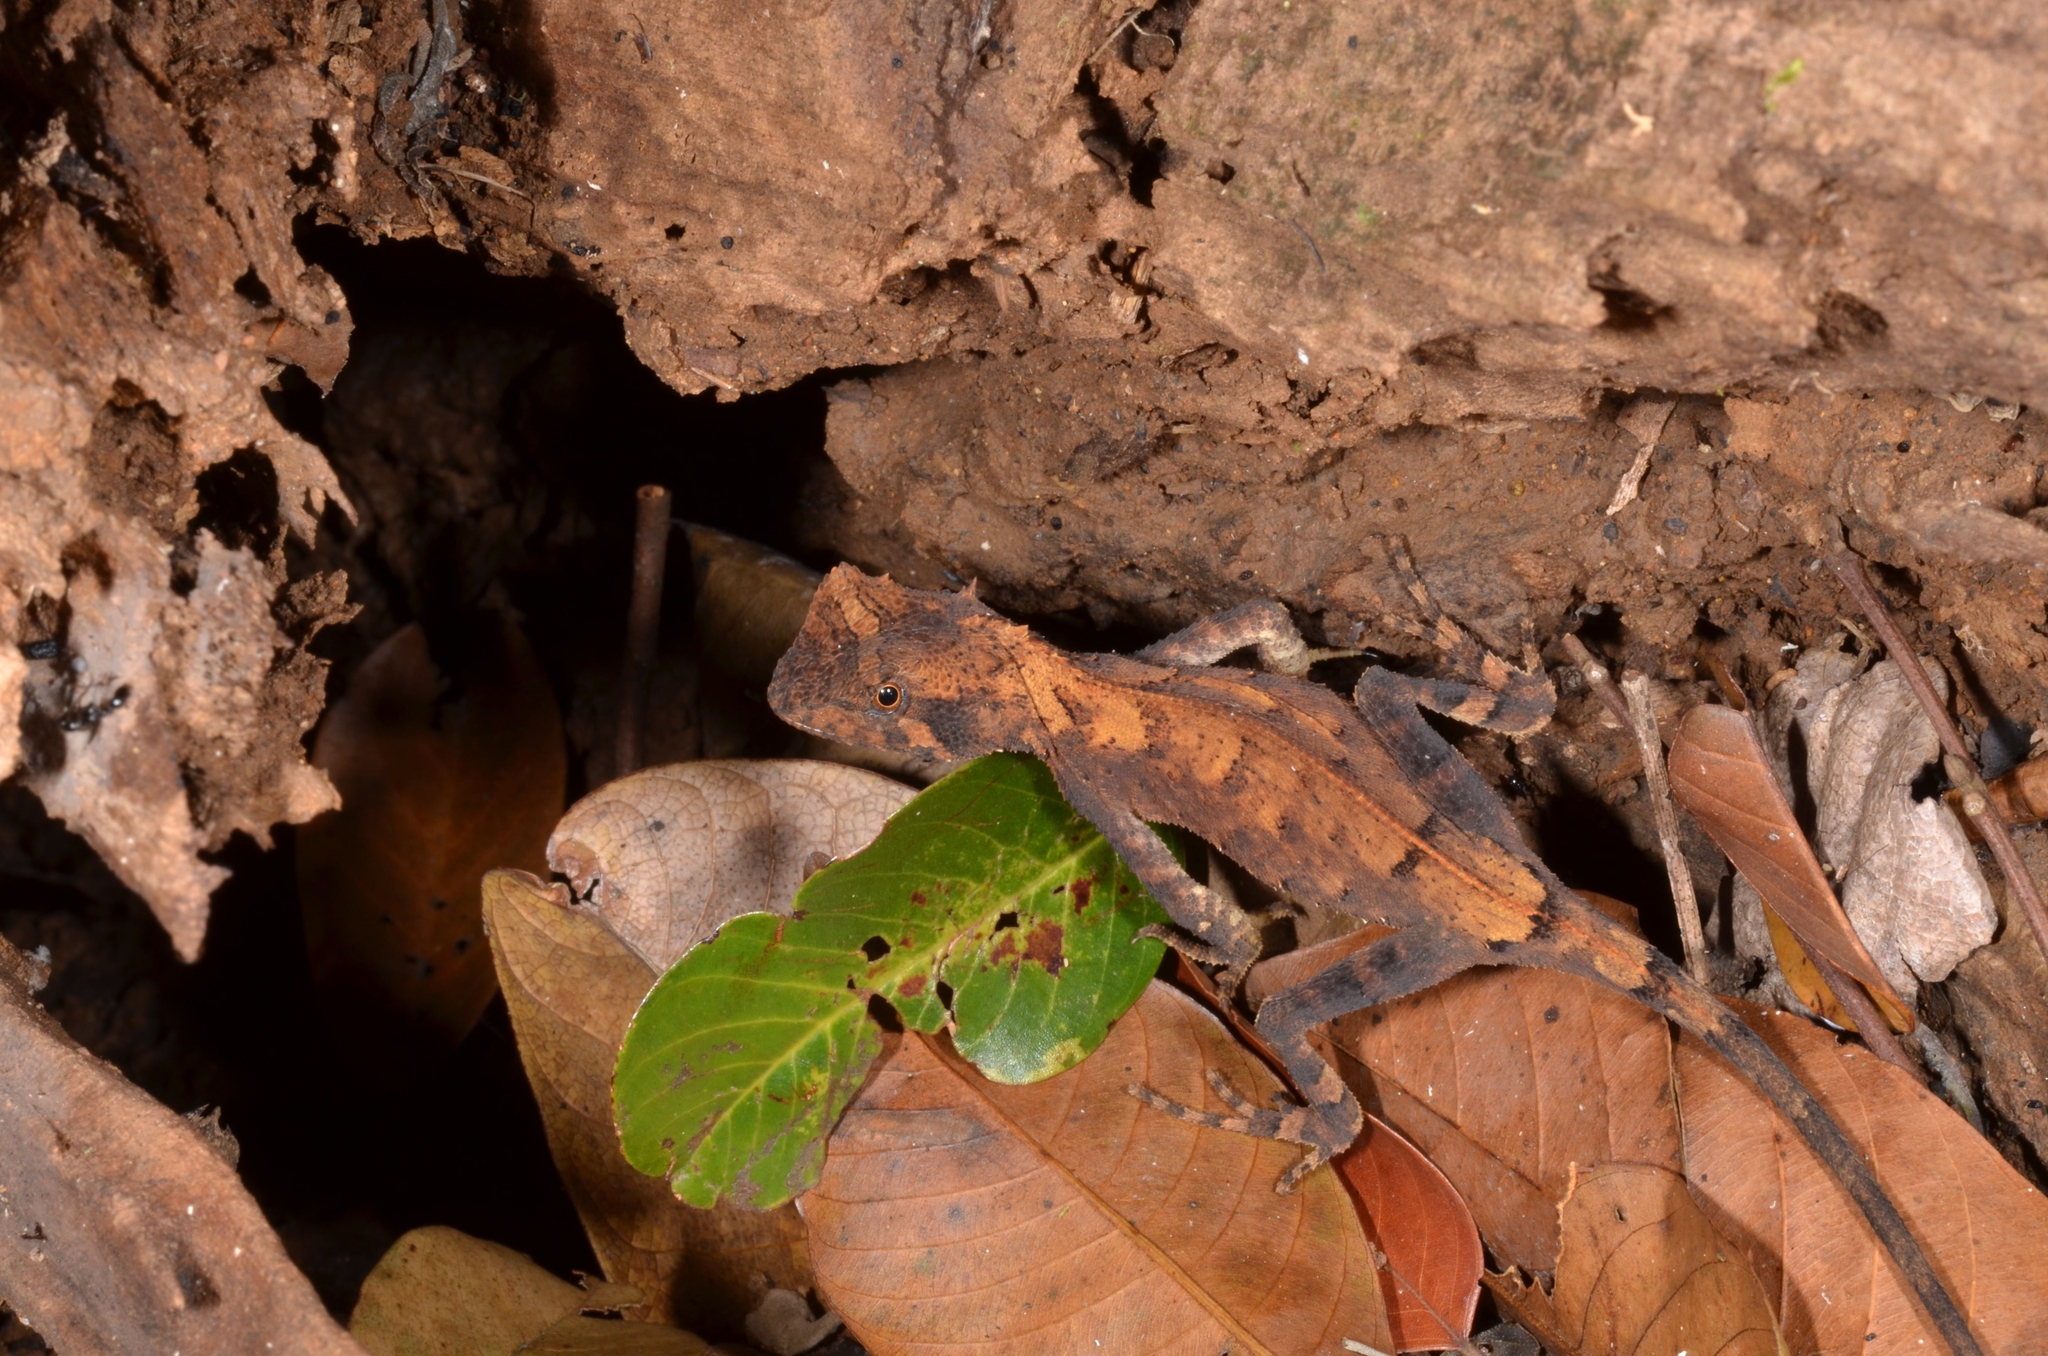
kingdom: Animalia
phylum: Chordata
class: Squamata
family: Agamidae
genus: Acanthosaura
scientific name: Acanthosaura coronata
